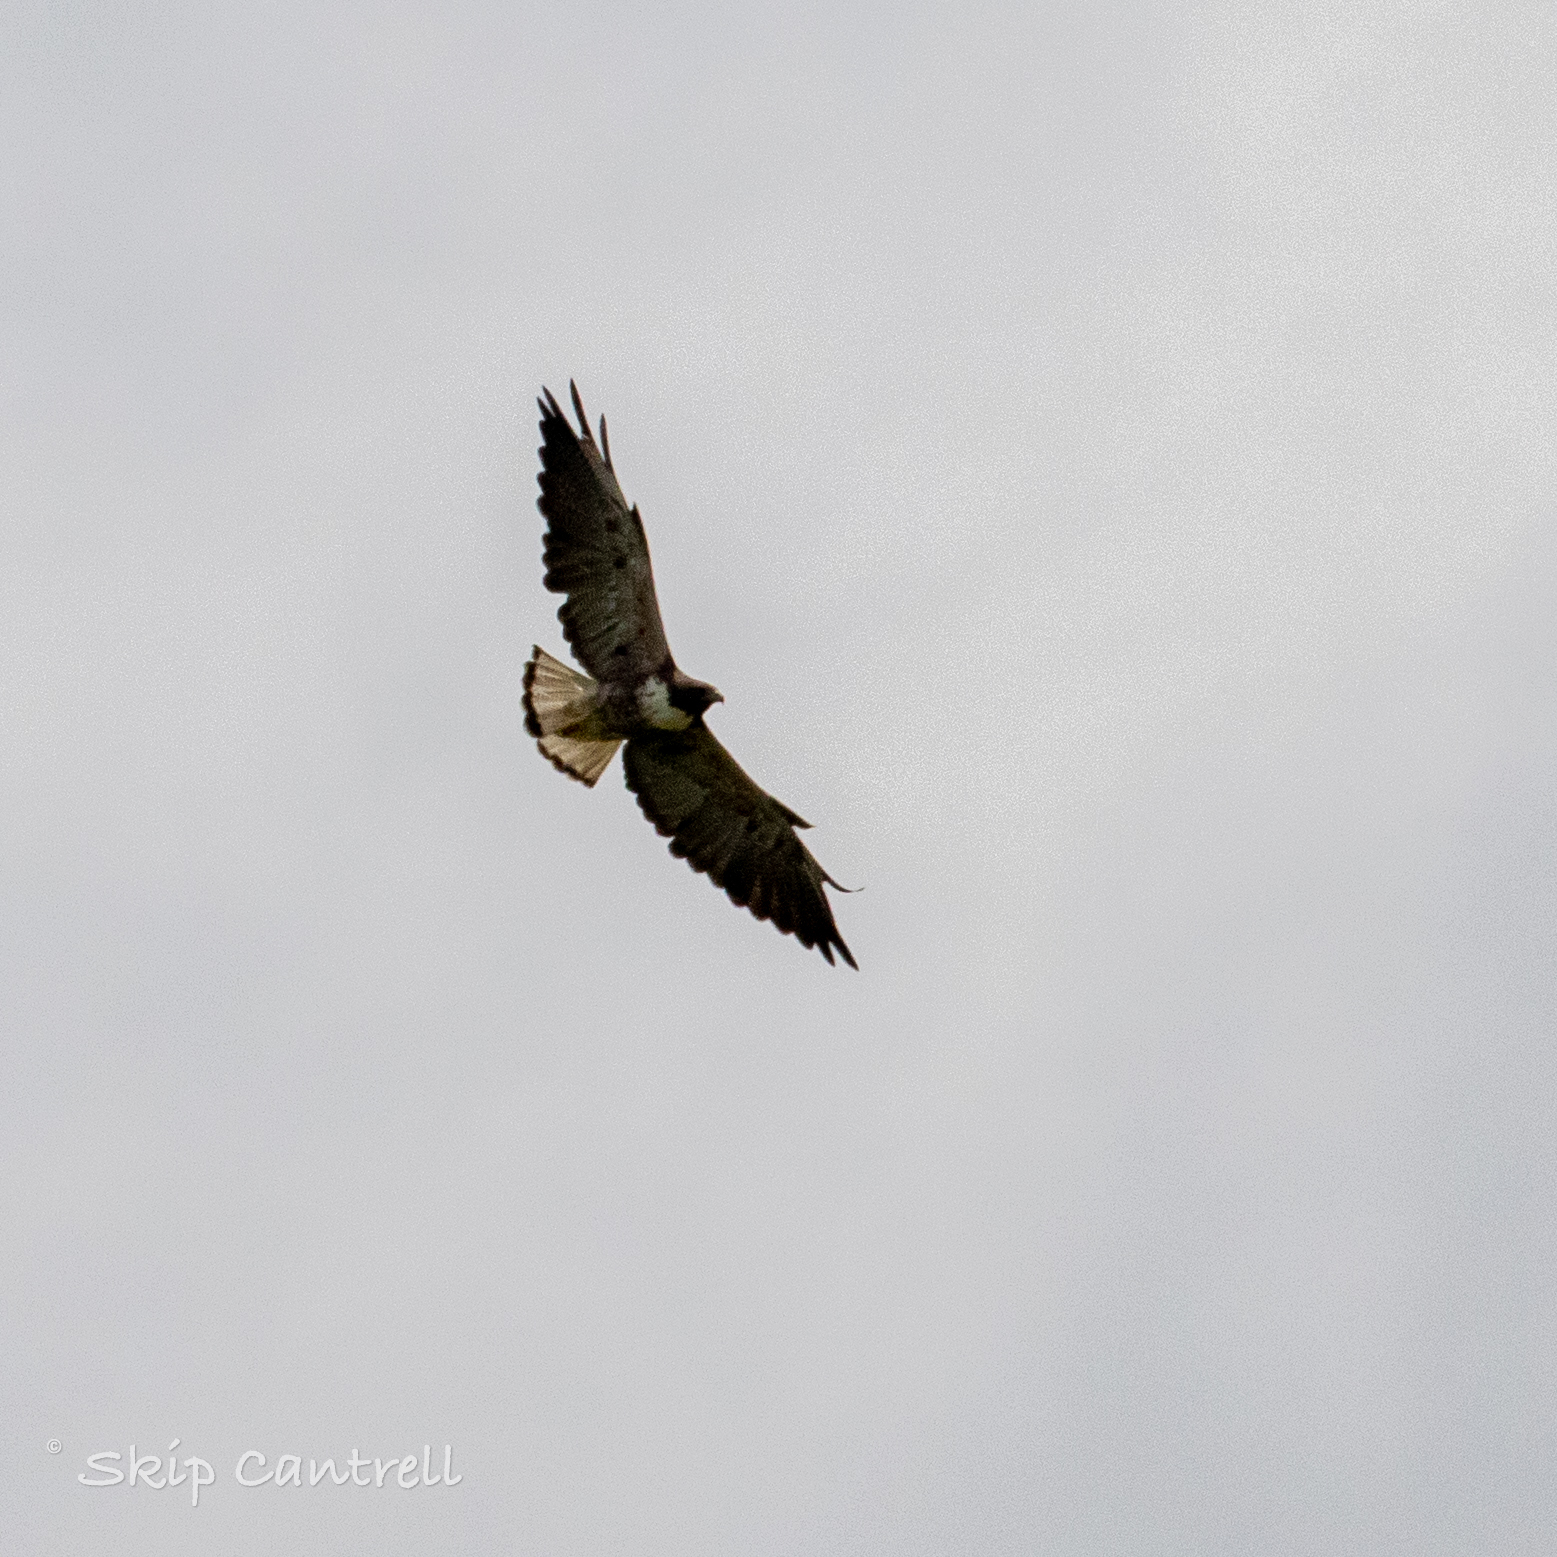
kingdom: Animalia
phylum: Chordata
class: Aves
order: Accipitriformes
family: Accipitridae
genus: Buteo
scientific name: Buteo albicaudatus
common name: White-tailed hawk
